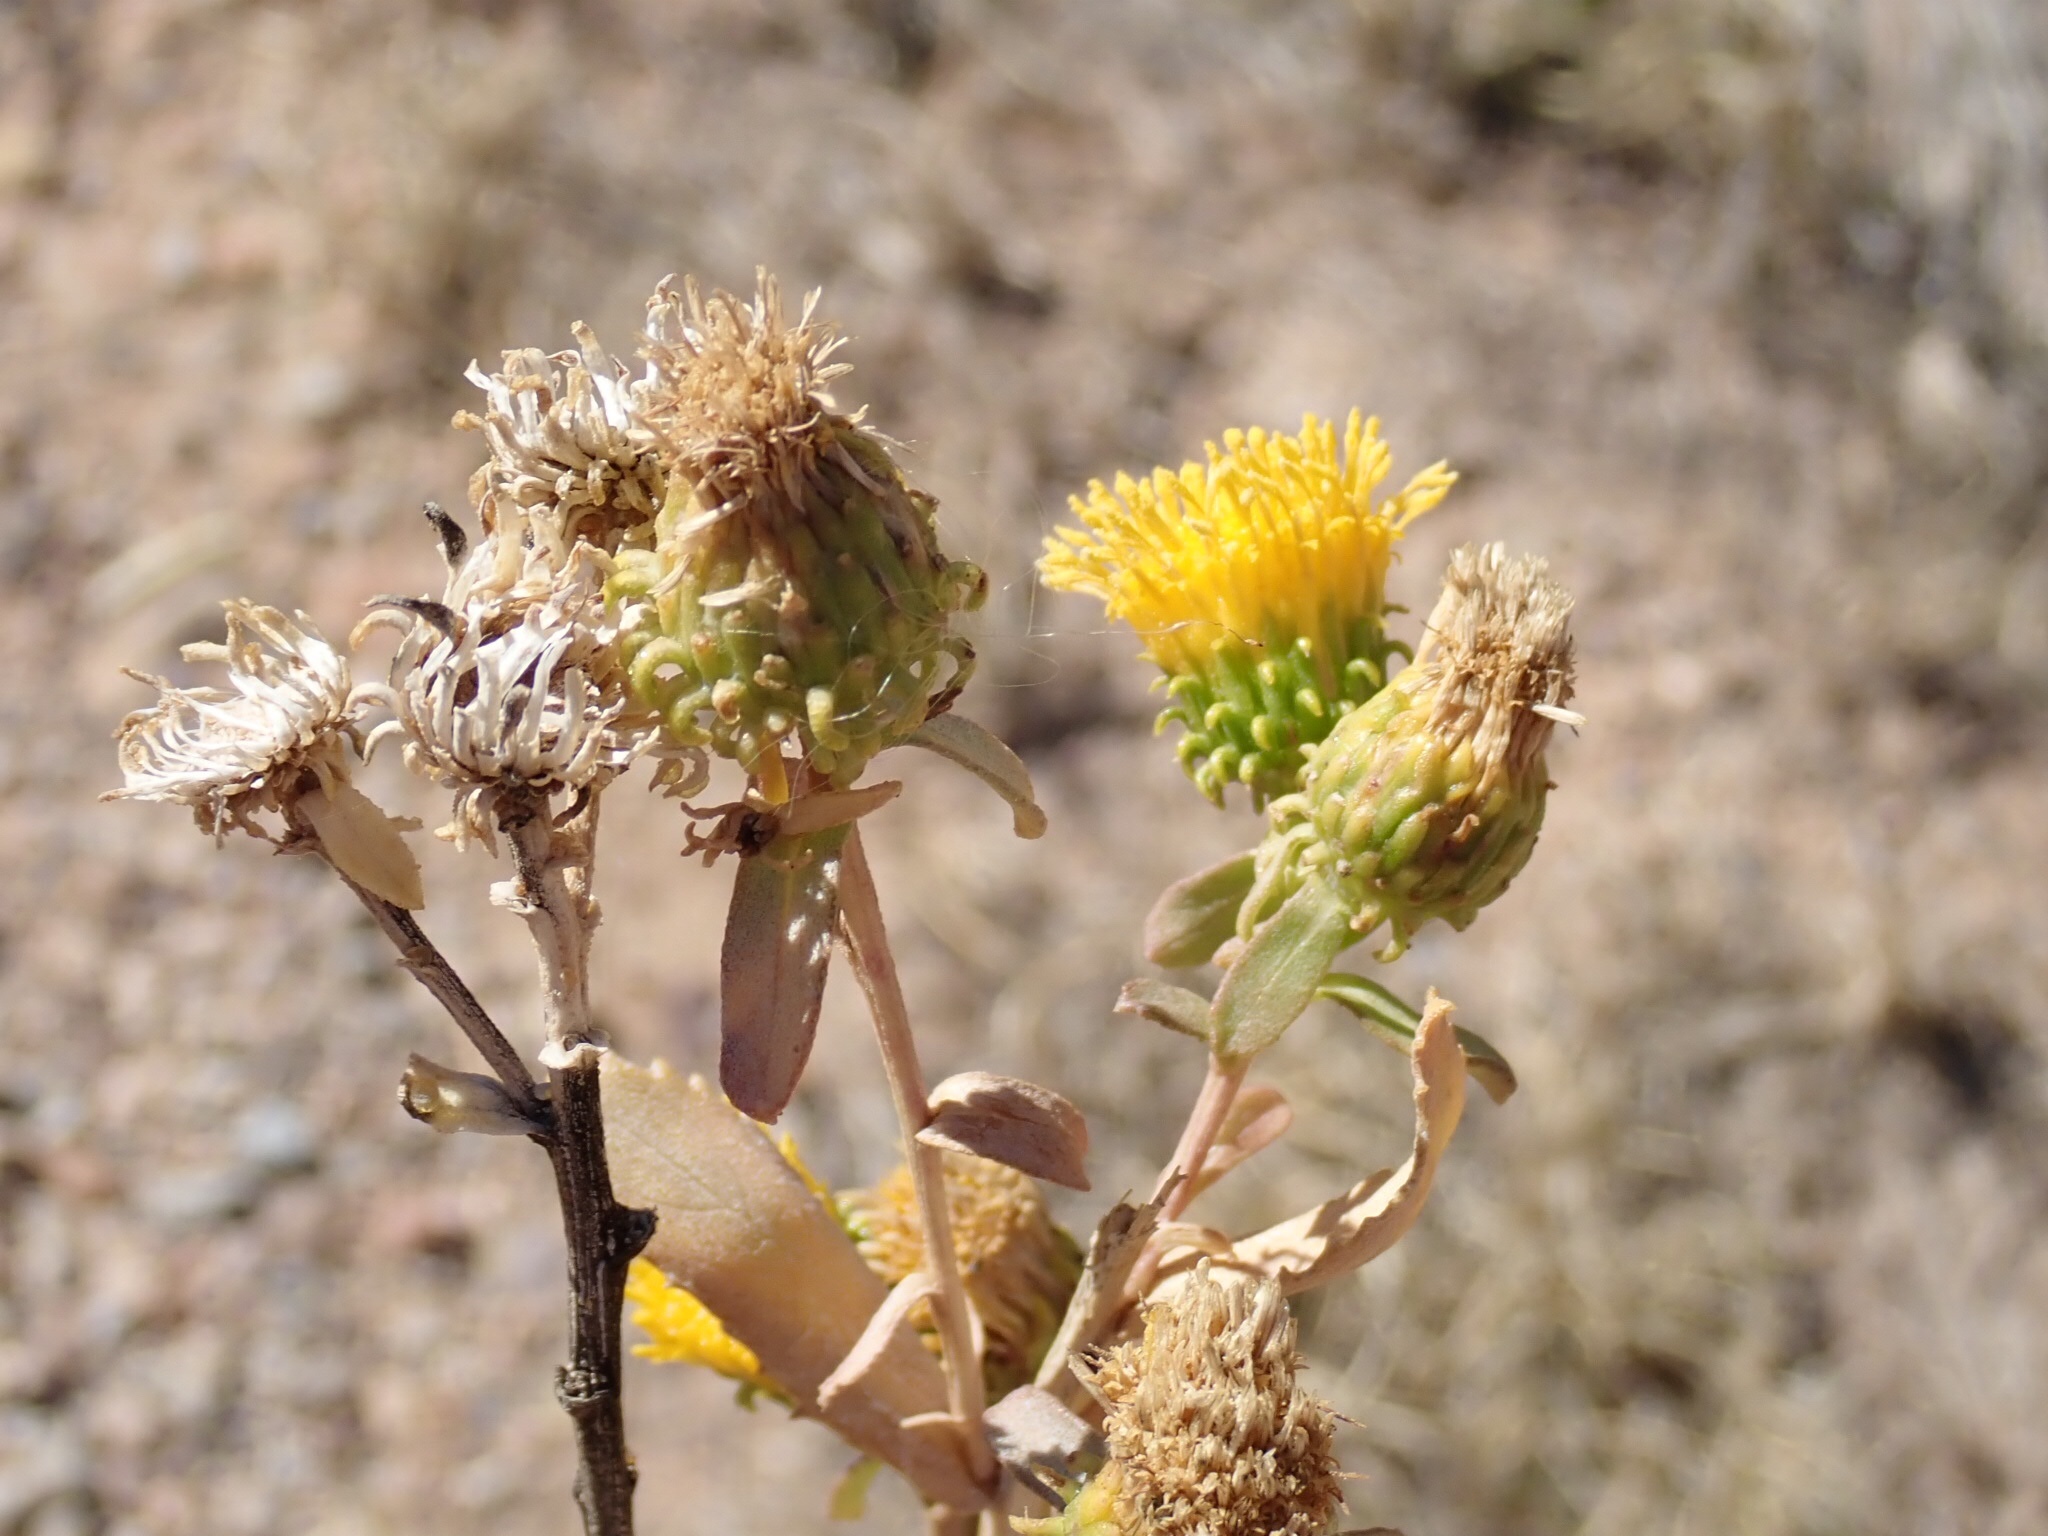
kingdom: Plantae
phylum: Tracheophyta
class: Magnoliopsida
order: Asterales
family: Asteraceae
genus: Grindelia
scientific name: Grindelia hirsutula
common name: Hairy gumweed
